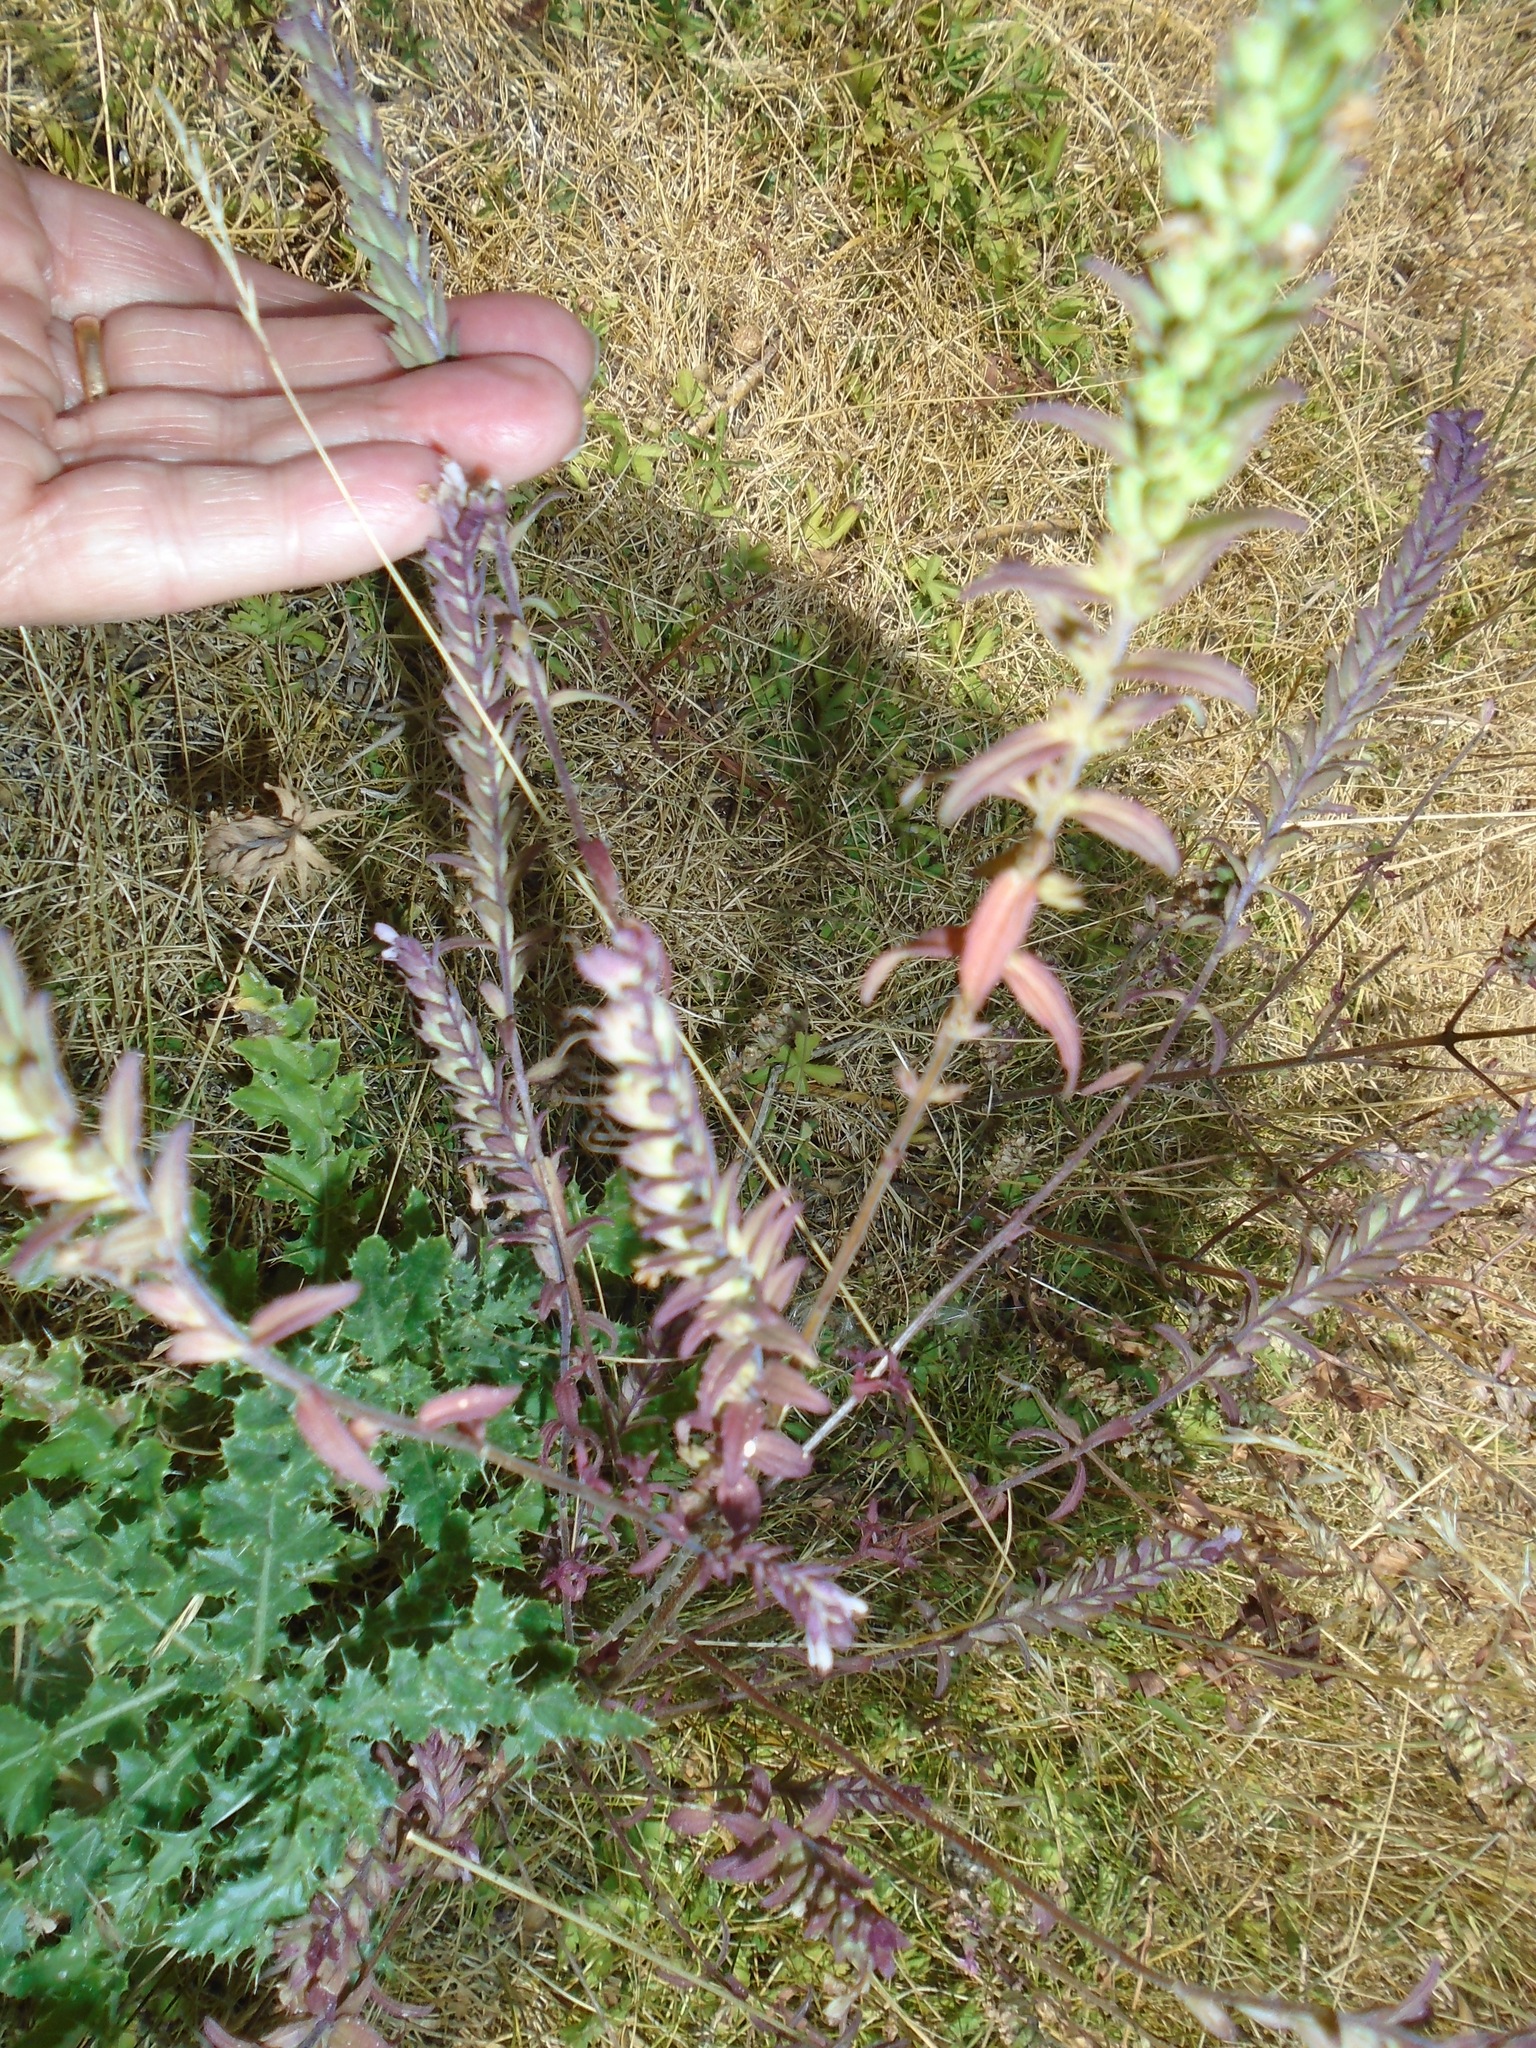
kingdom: Plantae
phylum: Tracheophyta
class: Magnoliopsida
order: Lamiales
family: Orobanchaceae
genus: Odontites
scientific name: Odontites vernus
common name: Red bartsia
